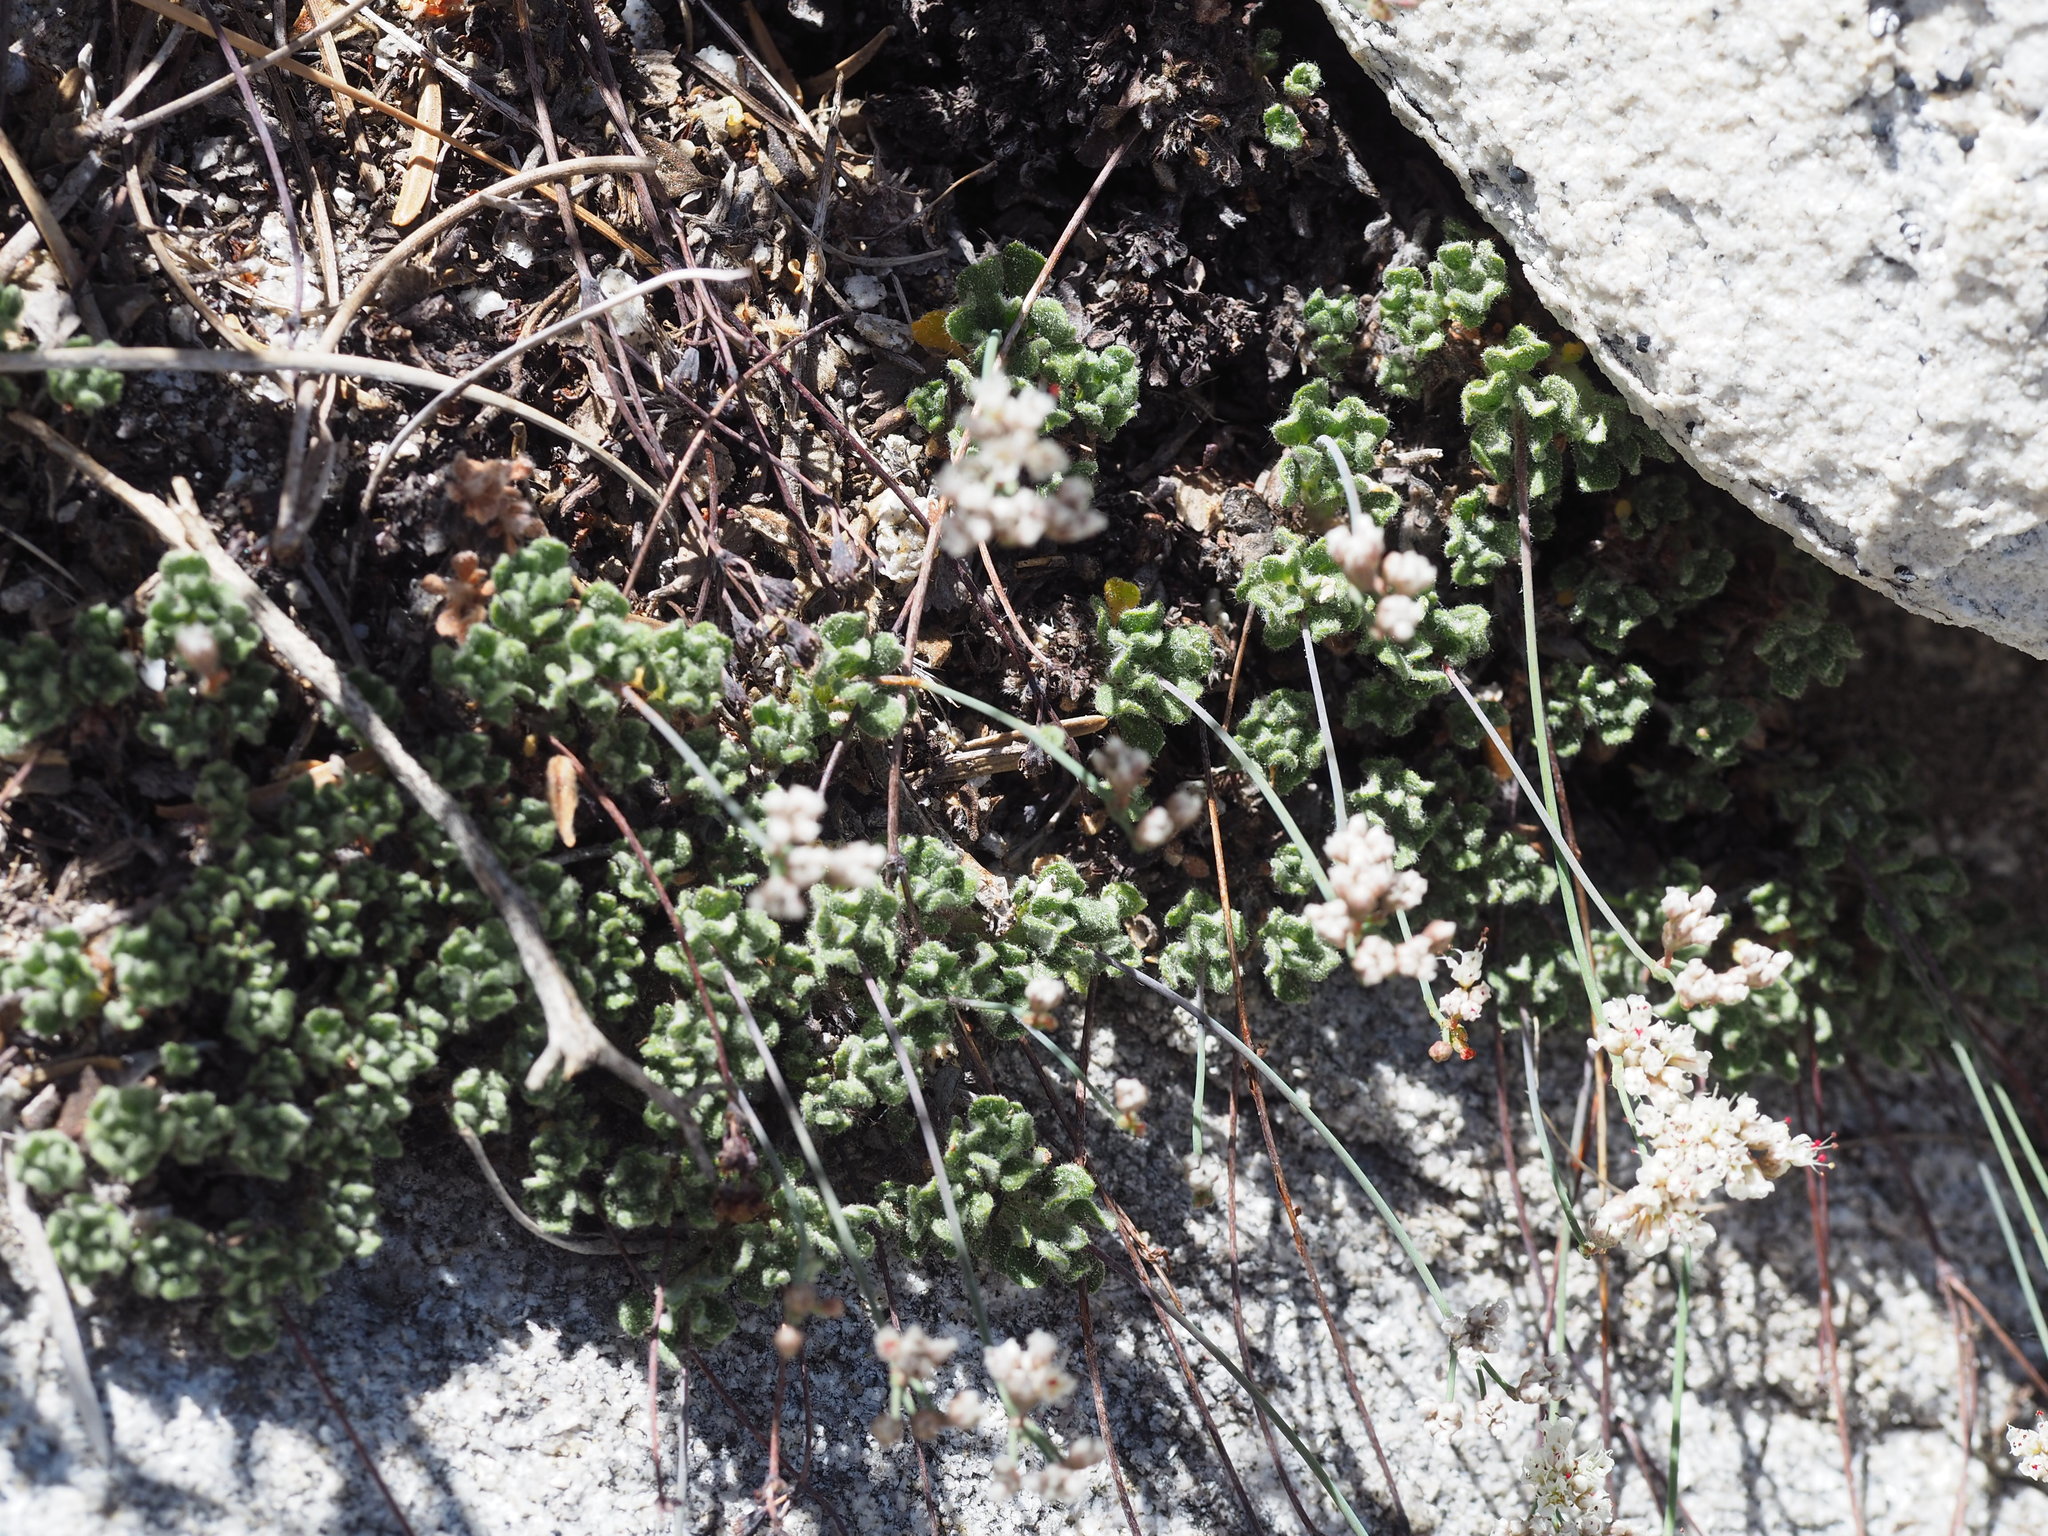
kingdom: Plantae
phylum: Tracheophyta
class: Magnoliopsida
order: Caryophyllales
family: Polygonaceae
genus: Eriogonum
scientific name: Eriogonum breedlovei
